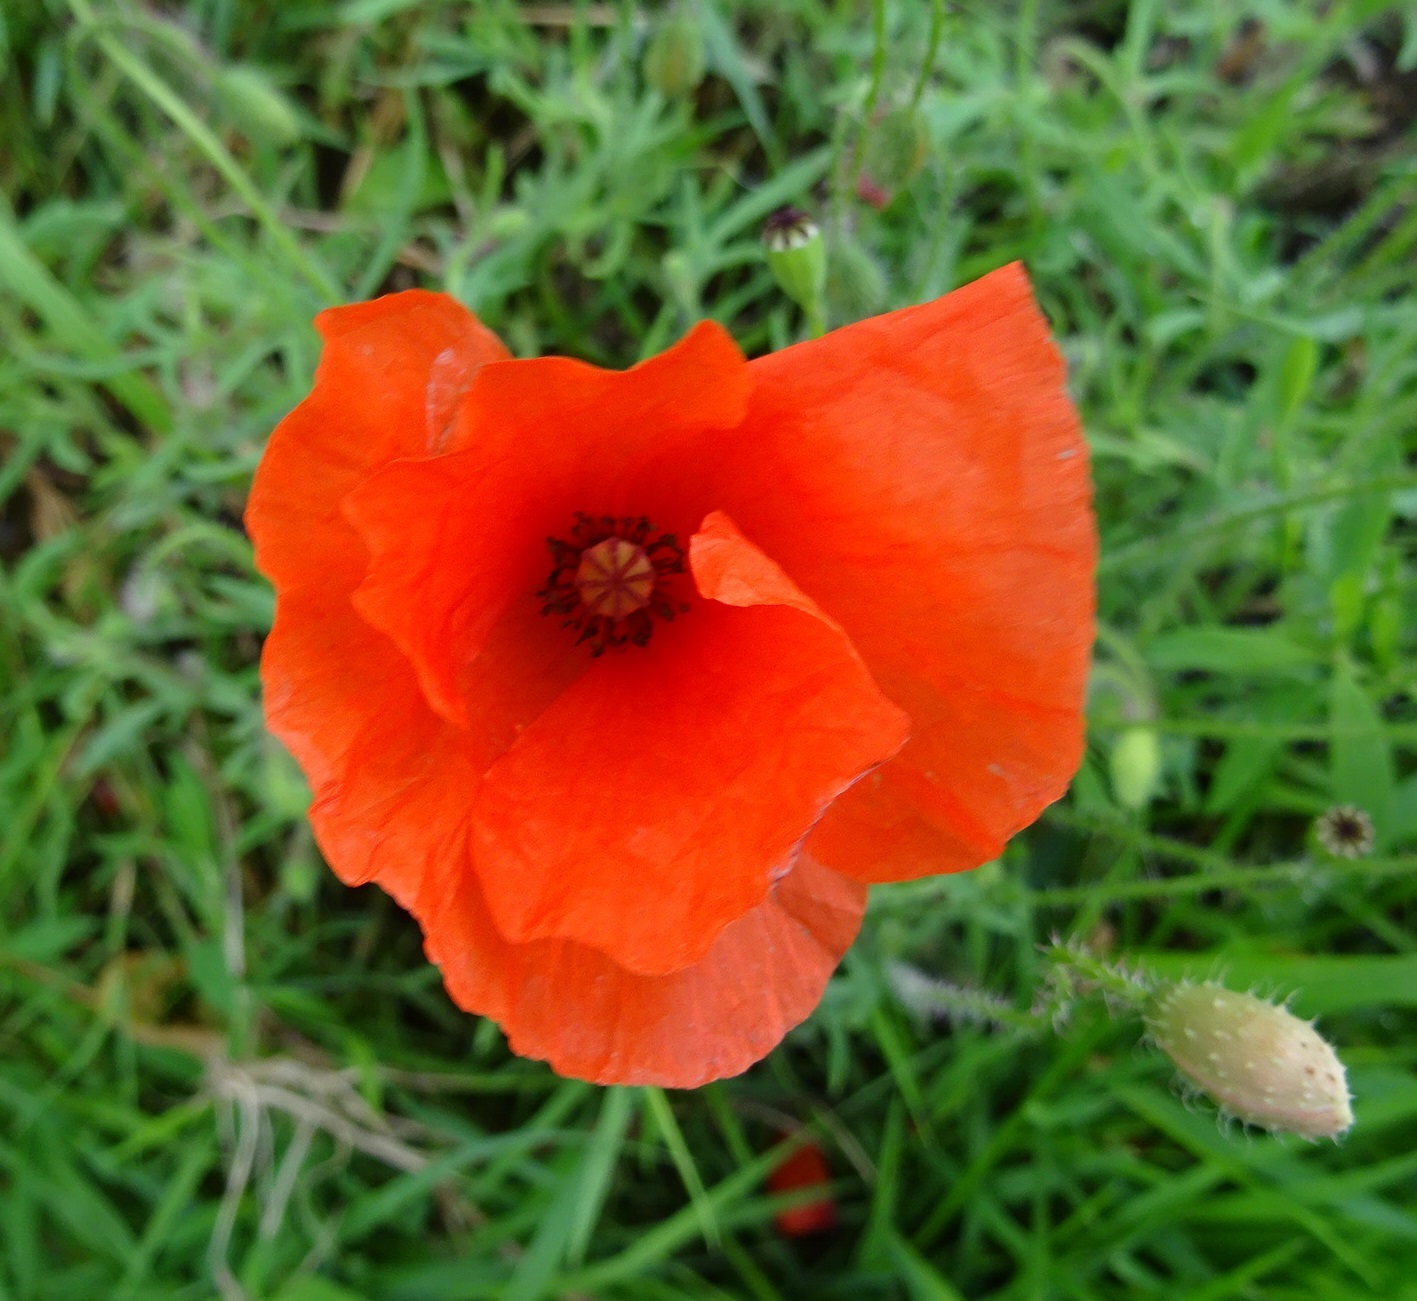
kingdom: Plantae
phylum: Tracheophyta
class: Magnoliopsida
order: Ranunculales
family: Papaveraceae
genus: Papaver
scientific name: Papaver rhoeas
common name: Corn poppy
